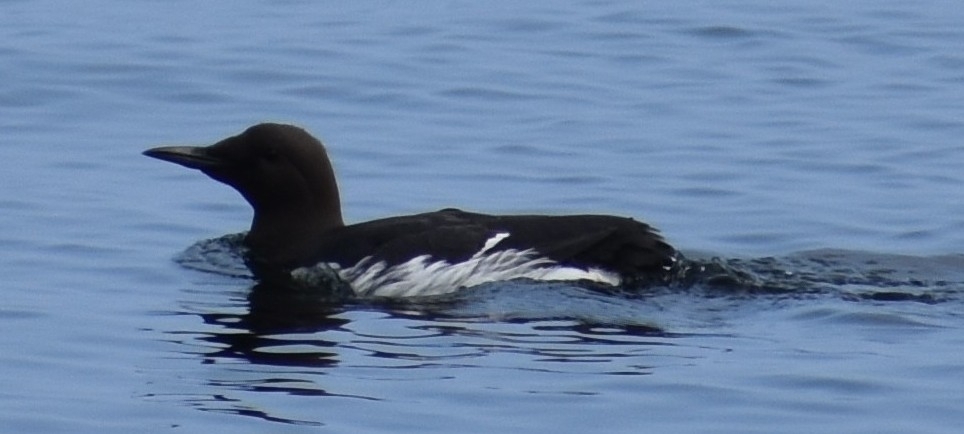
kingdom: Animalia
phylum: Chordata
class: Aves
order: Charadriiformes
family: Alcidae
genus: Uria
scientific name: Uria aalge
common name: Common murre
